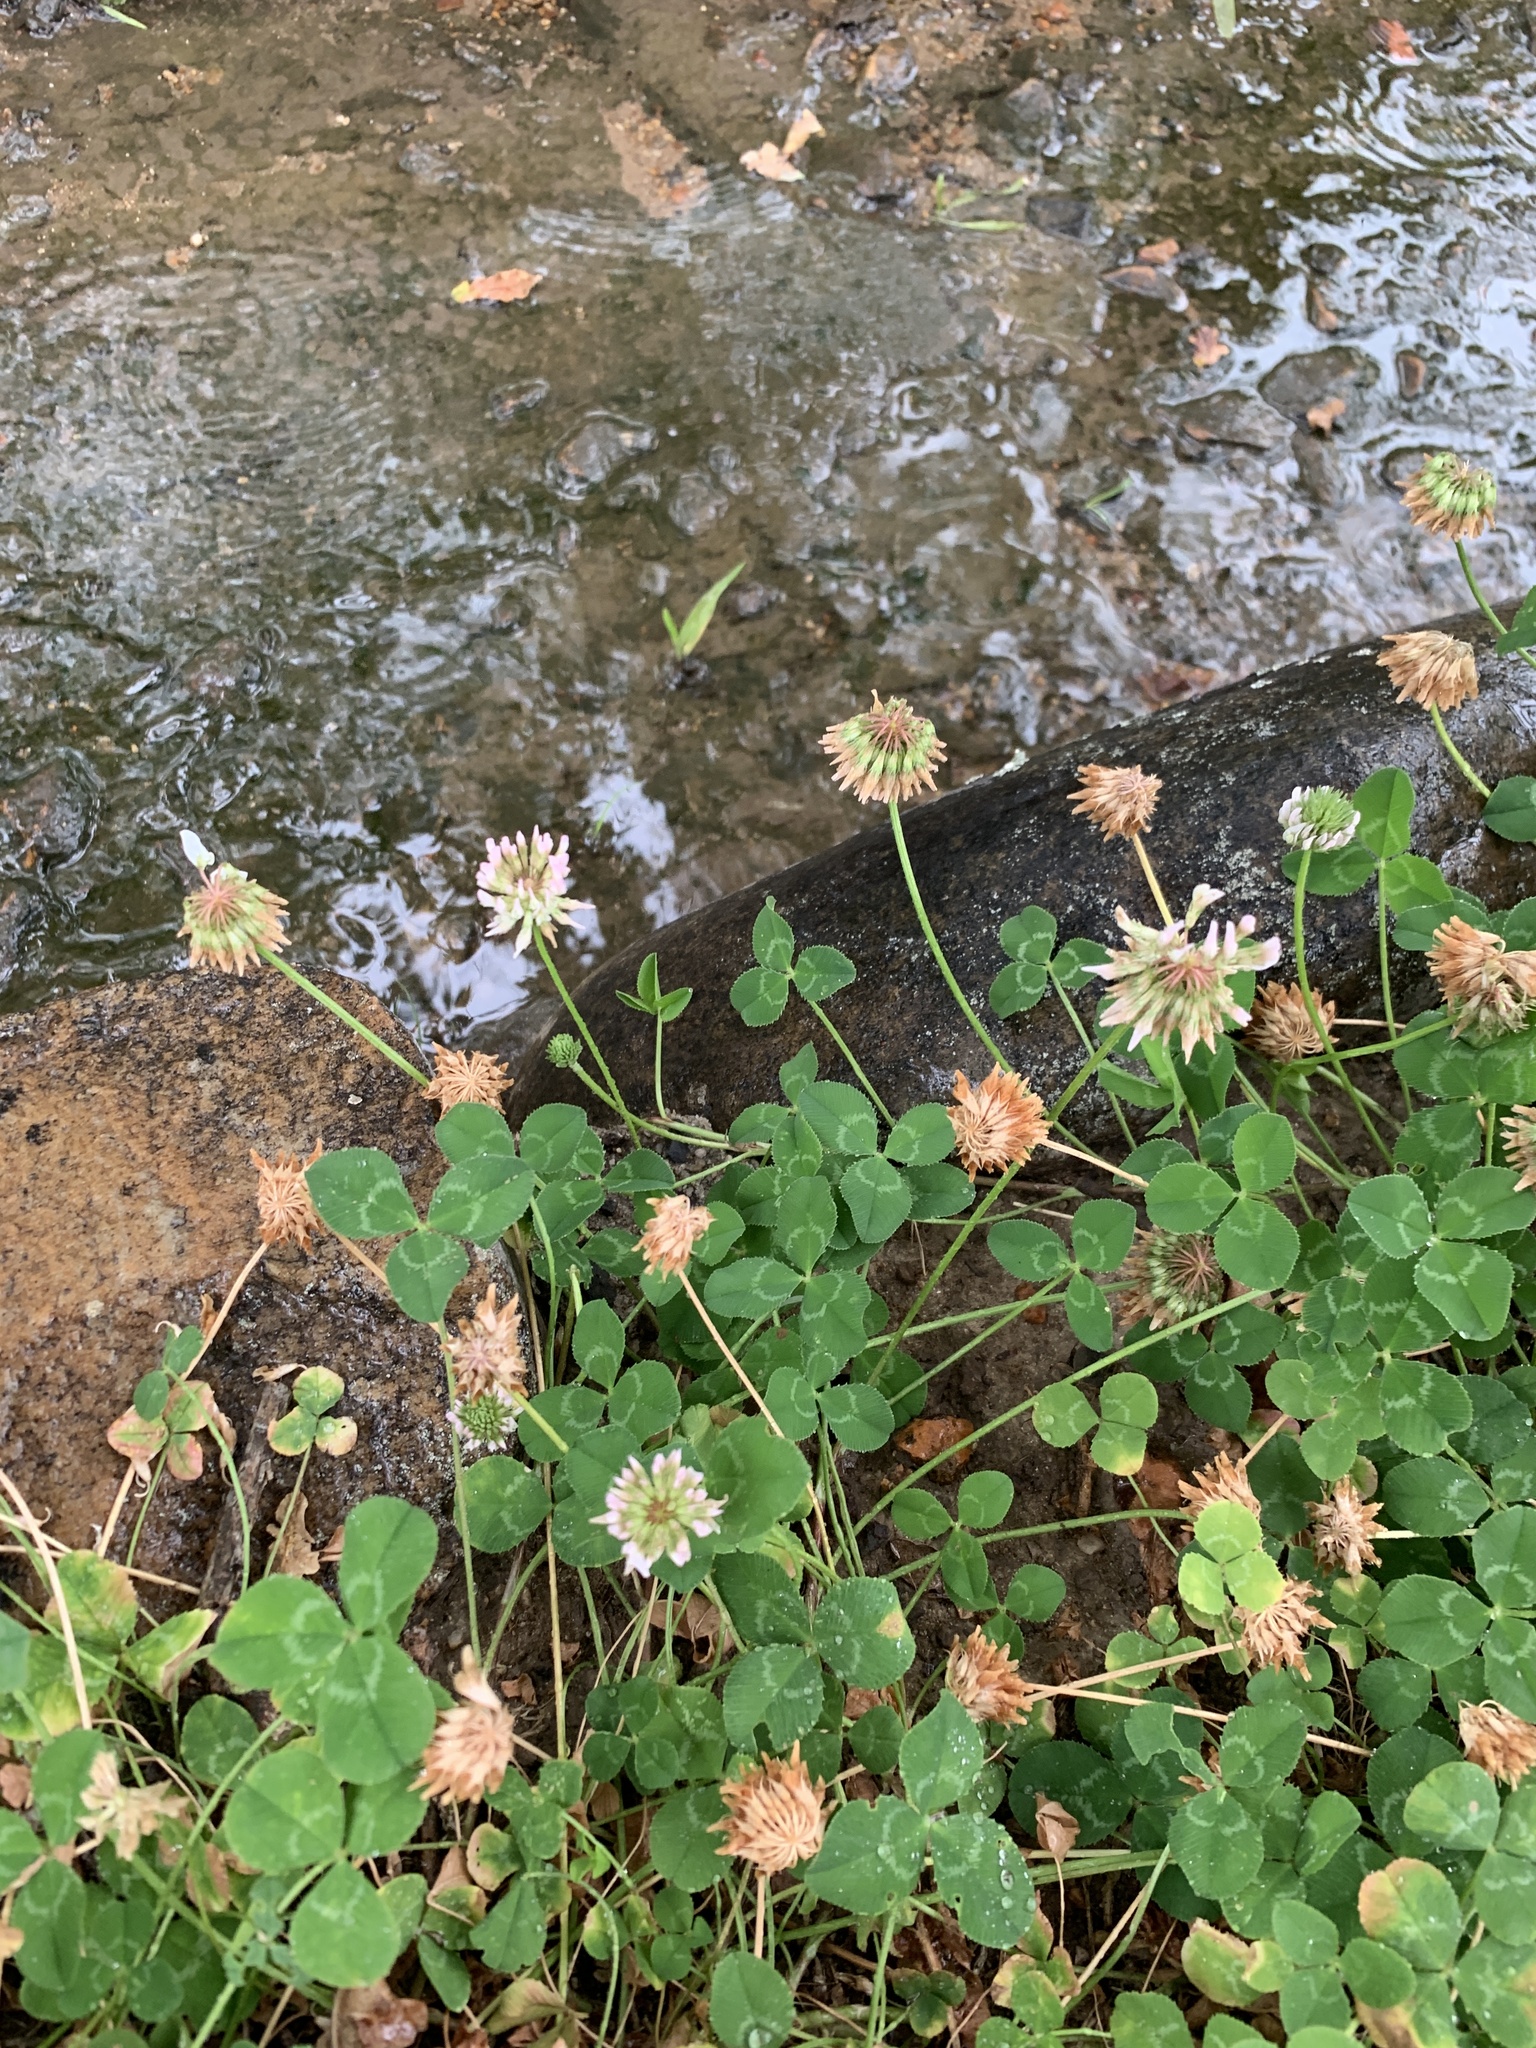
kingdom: Plantae
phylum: Tracheophyta
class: Magnoliopsida
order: Fabales
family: Fabaceae
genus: Trifolium
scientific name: Trifolium repens
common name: White clover
